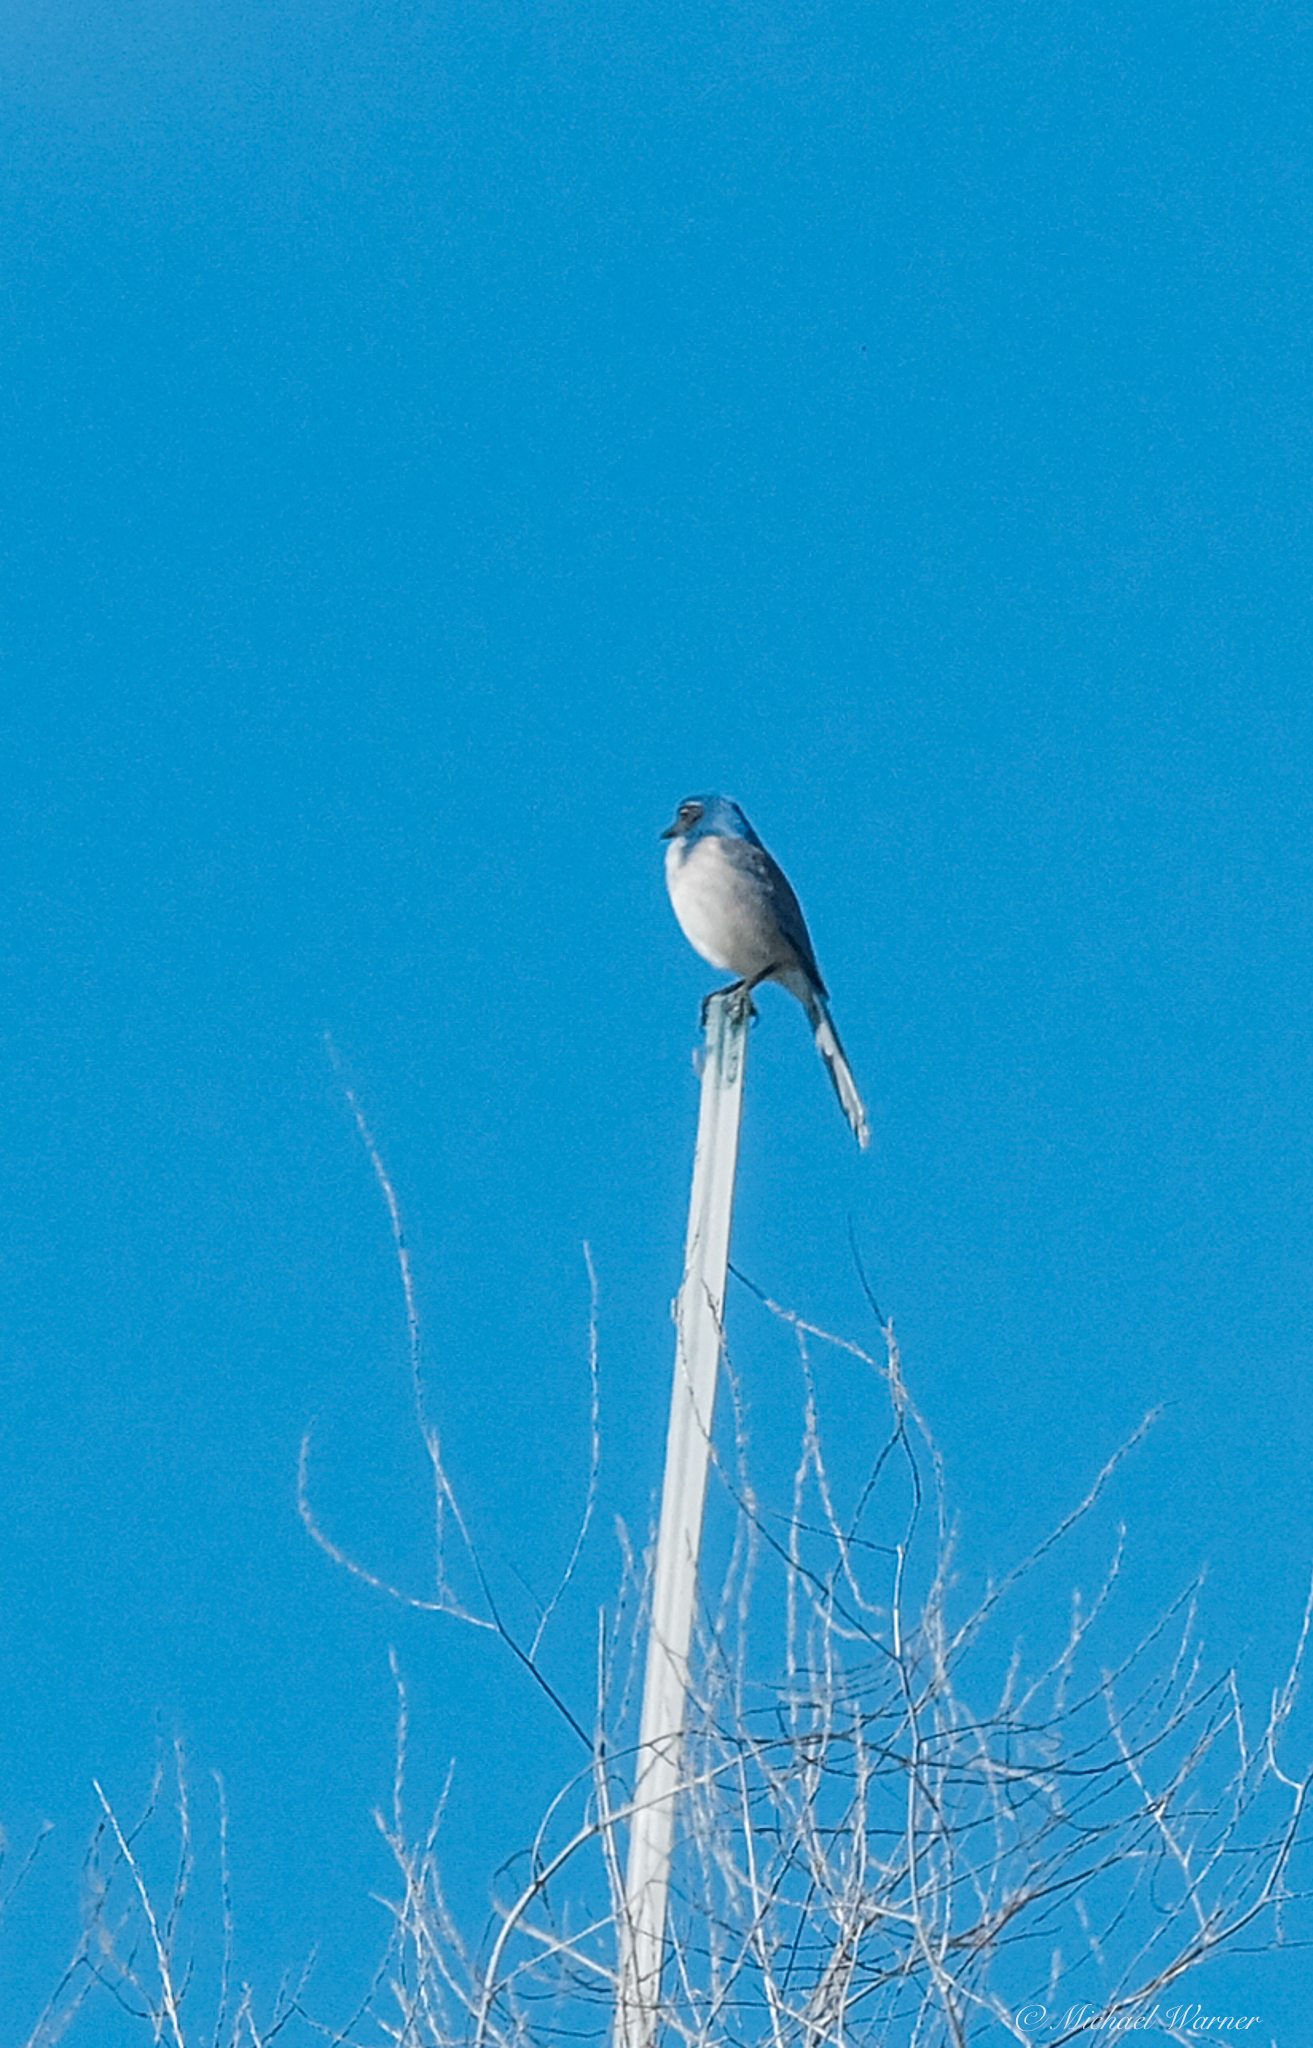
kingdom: Animalia
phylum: Chordata
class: Aves
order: Passeriformes
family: Corvidae
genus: Aphelocoma
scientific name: Aphelocoma californica
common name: California scrub-jay
